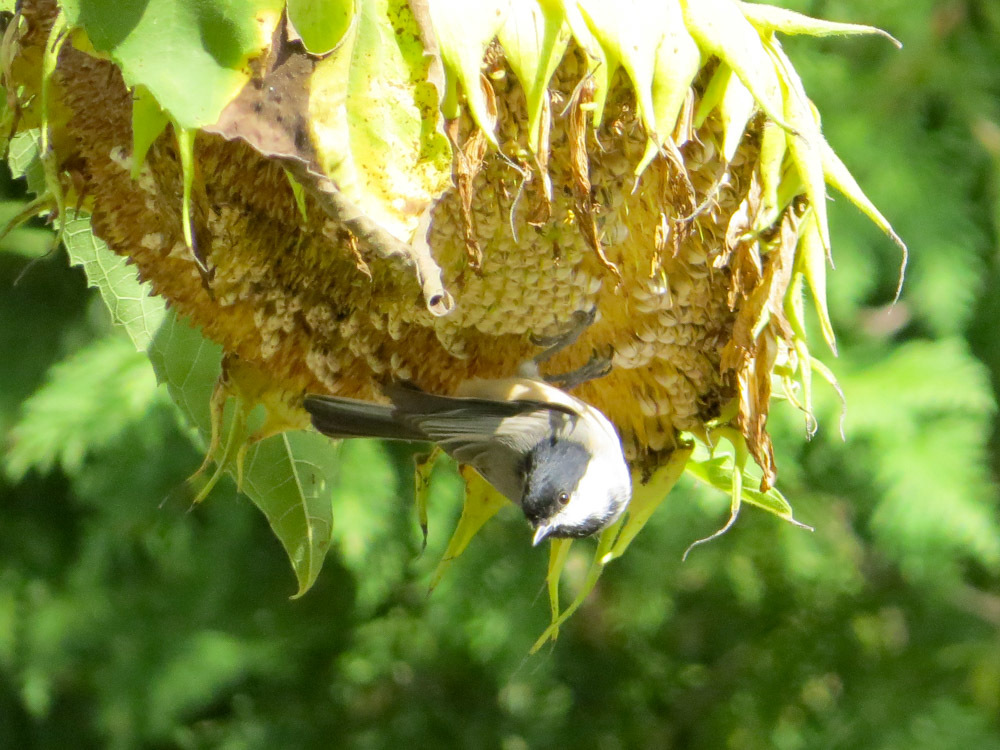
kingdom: Animalia
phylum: Chordata
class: Aves
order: Passeriformes
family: Paridae
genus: Poecile
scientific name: Poecile carolinensis
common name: Carolina chickadee
